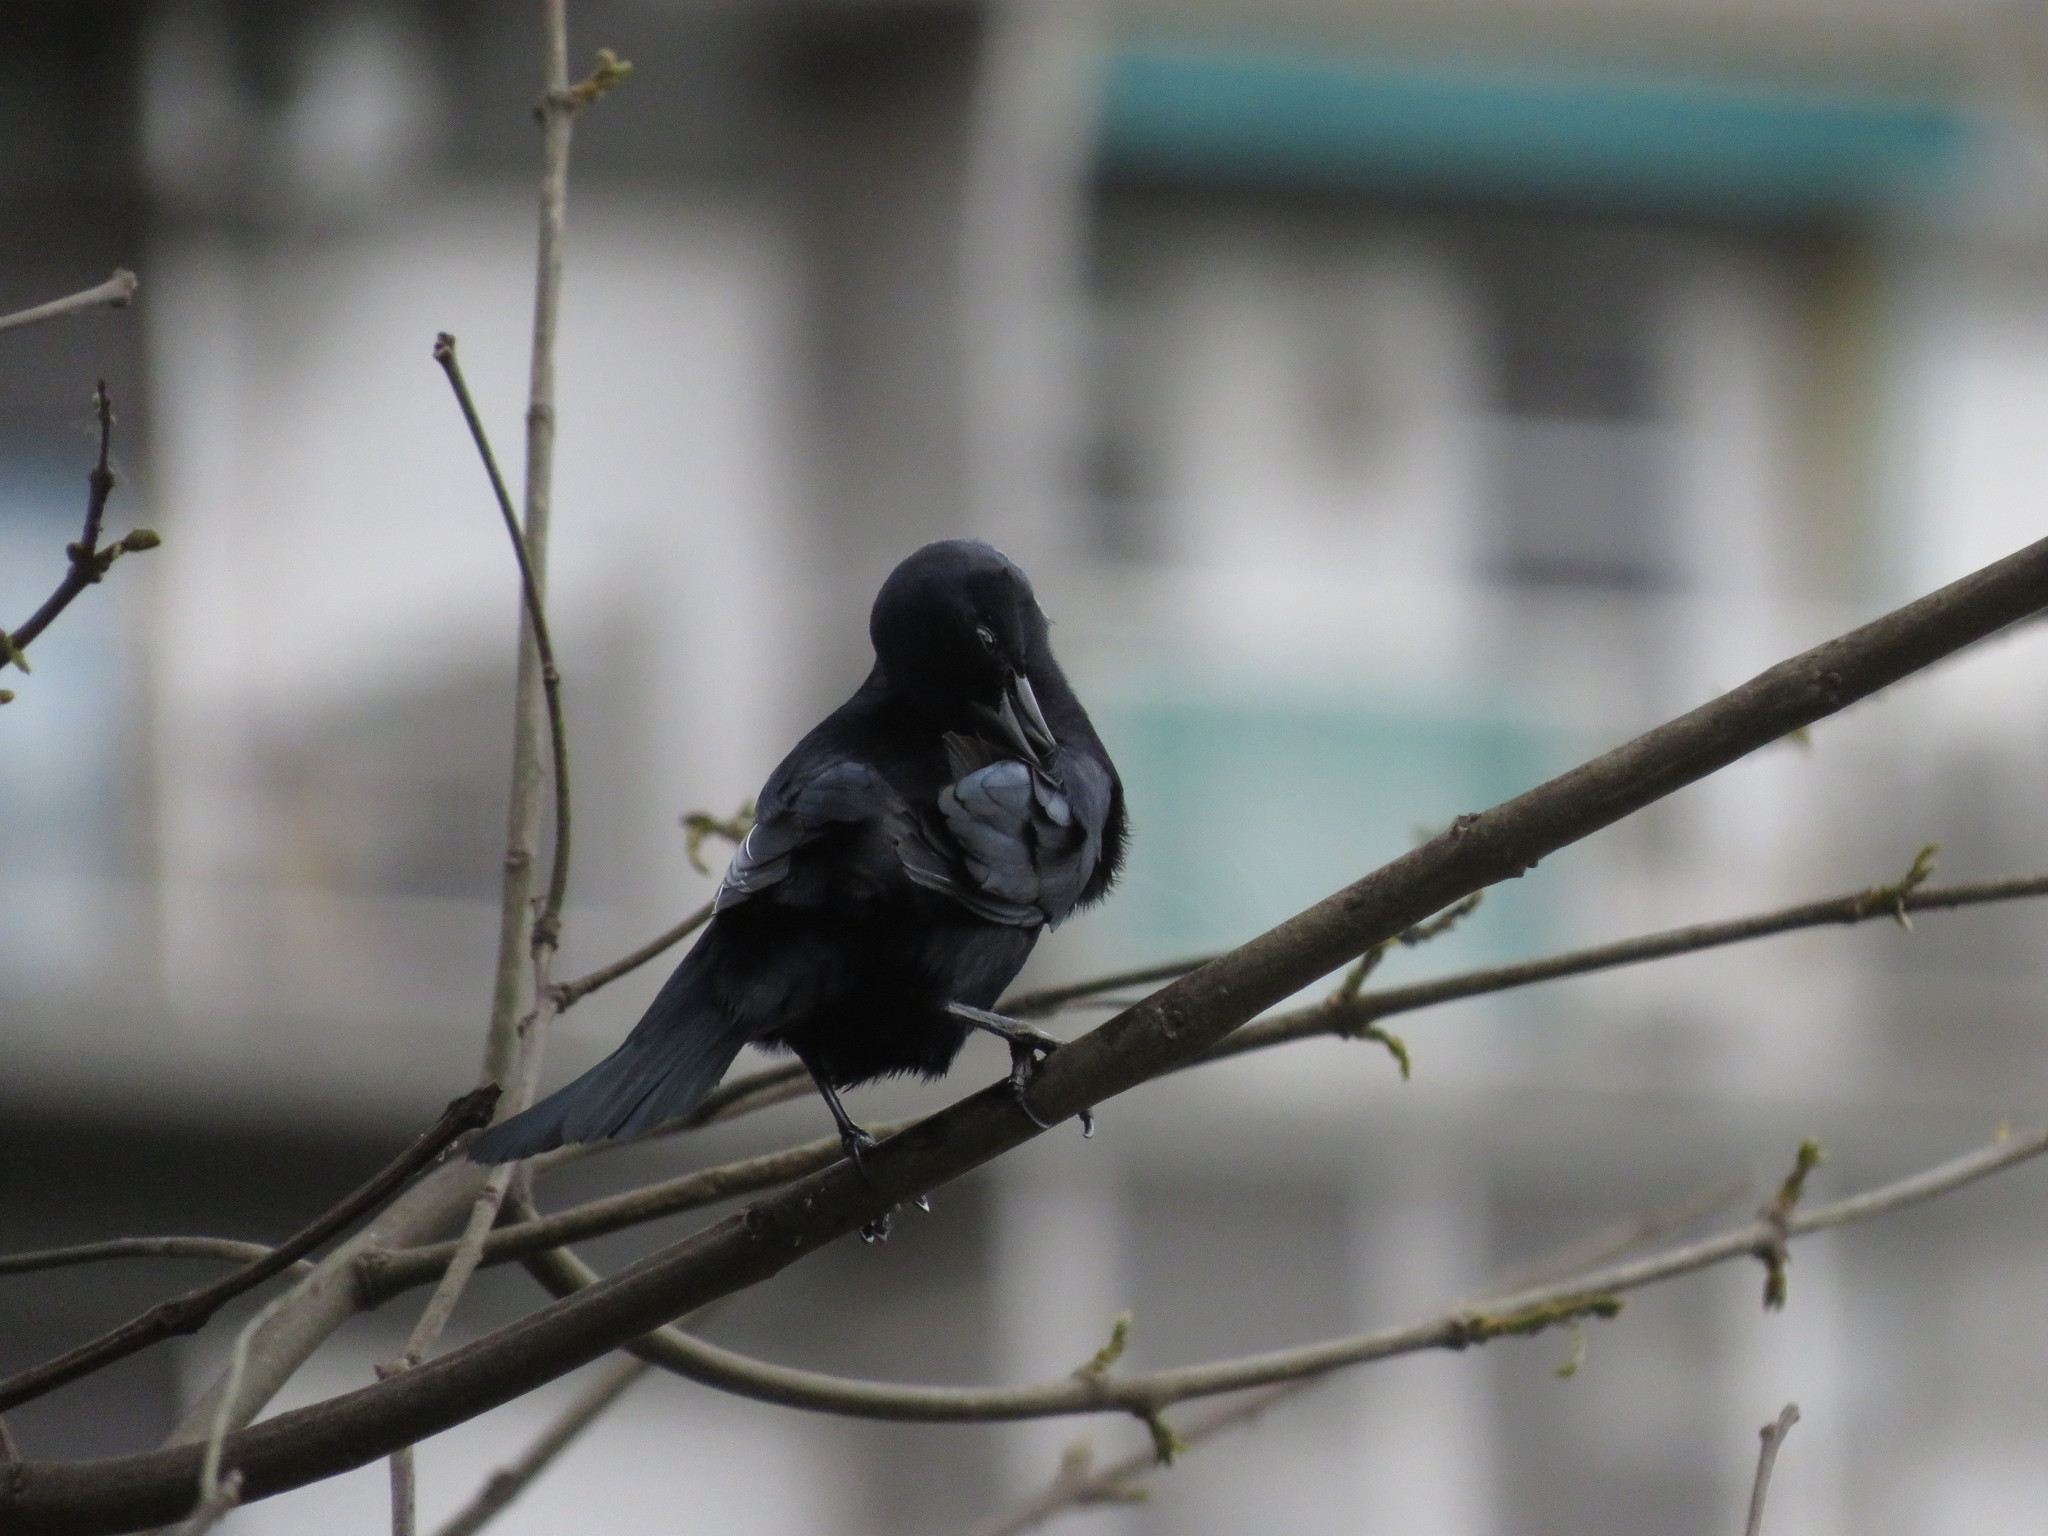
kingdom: Animalia
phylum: Chordata
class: Aves
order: Passeriformes
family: Icteridae
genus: Molothrus
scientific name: Molothrus bonariensis
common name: Shiny cowbird
